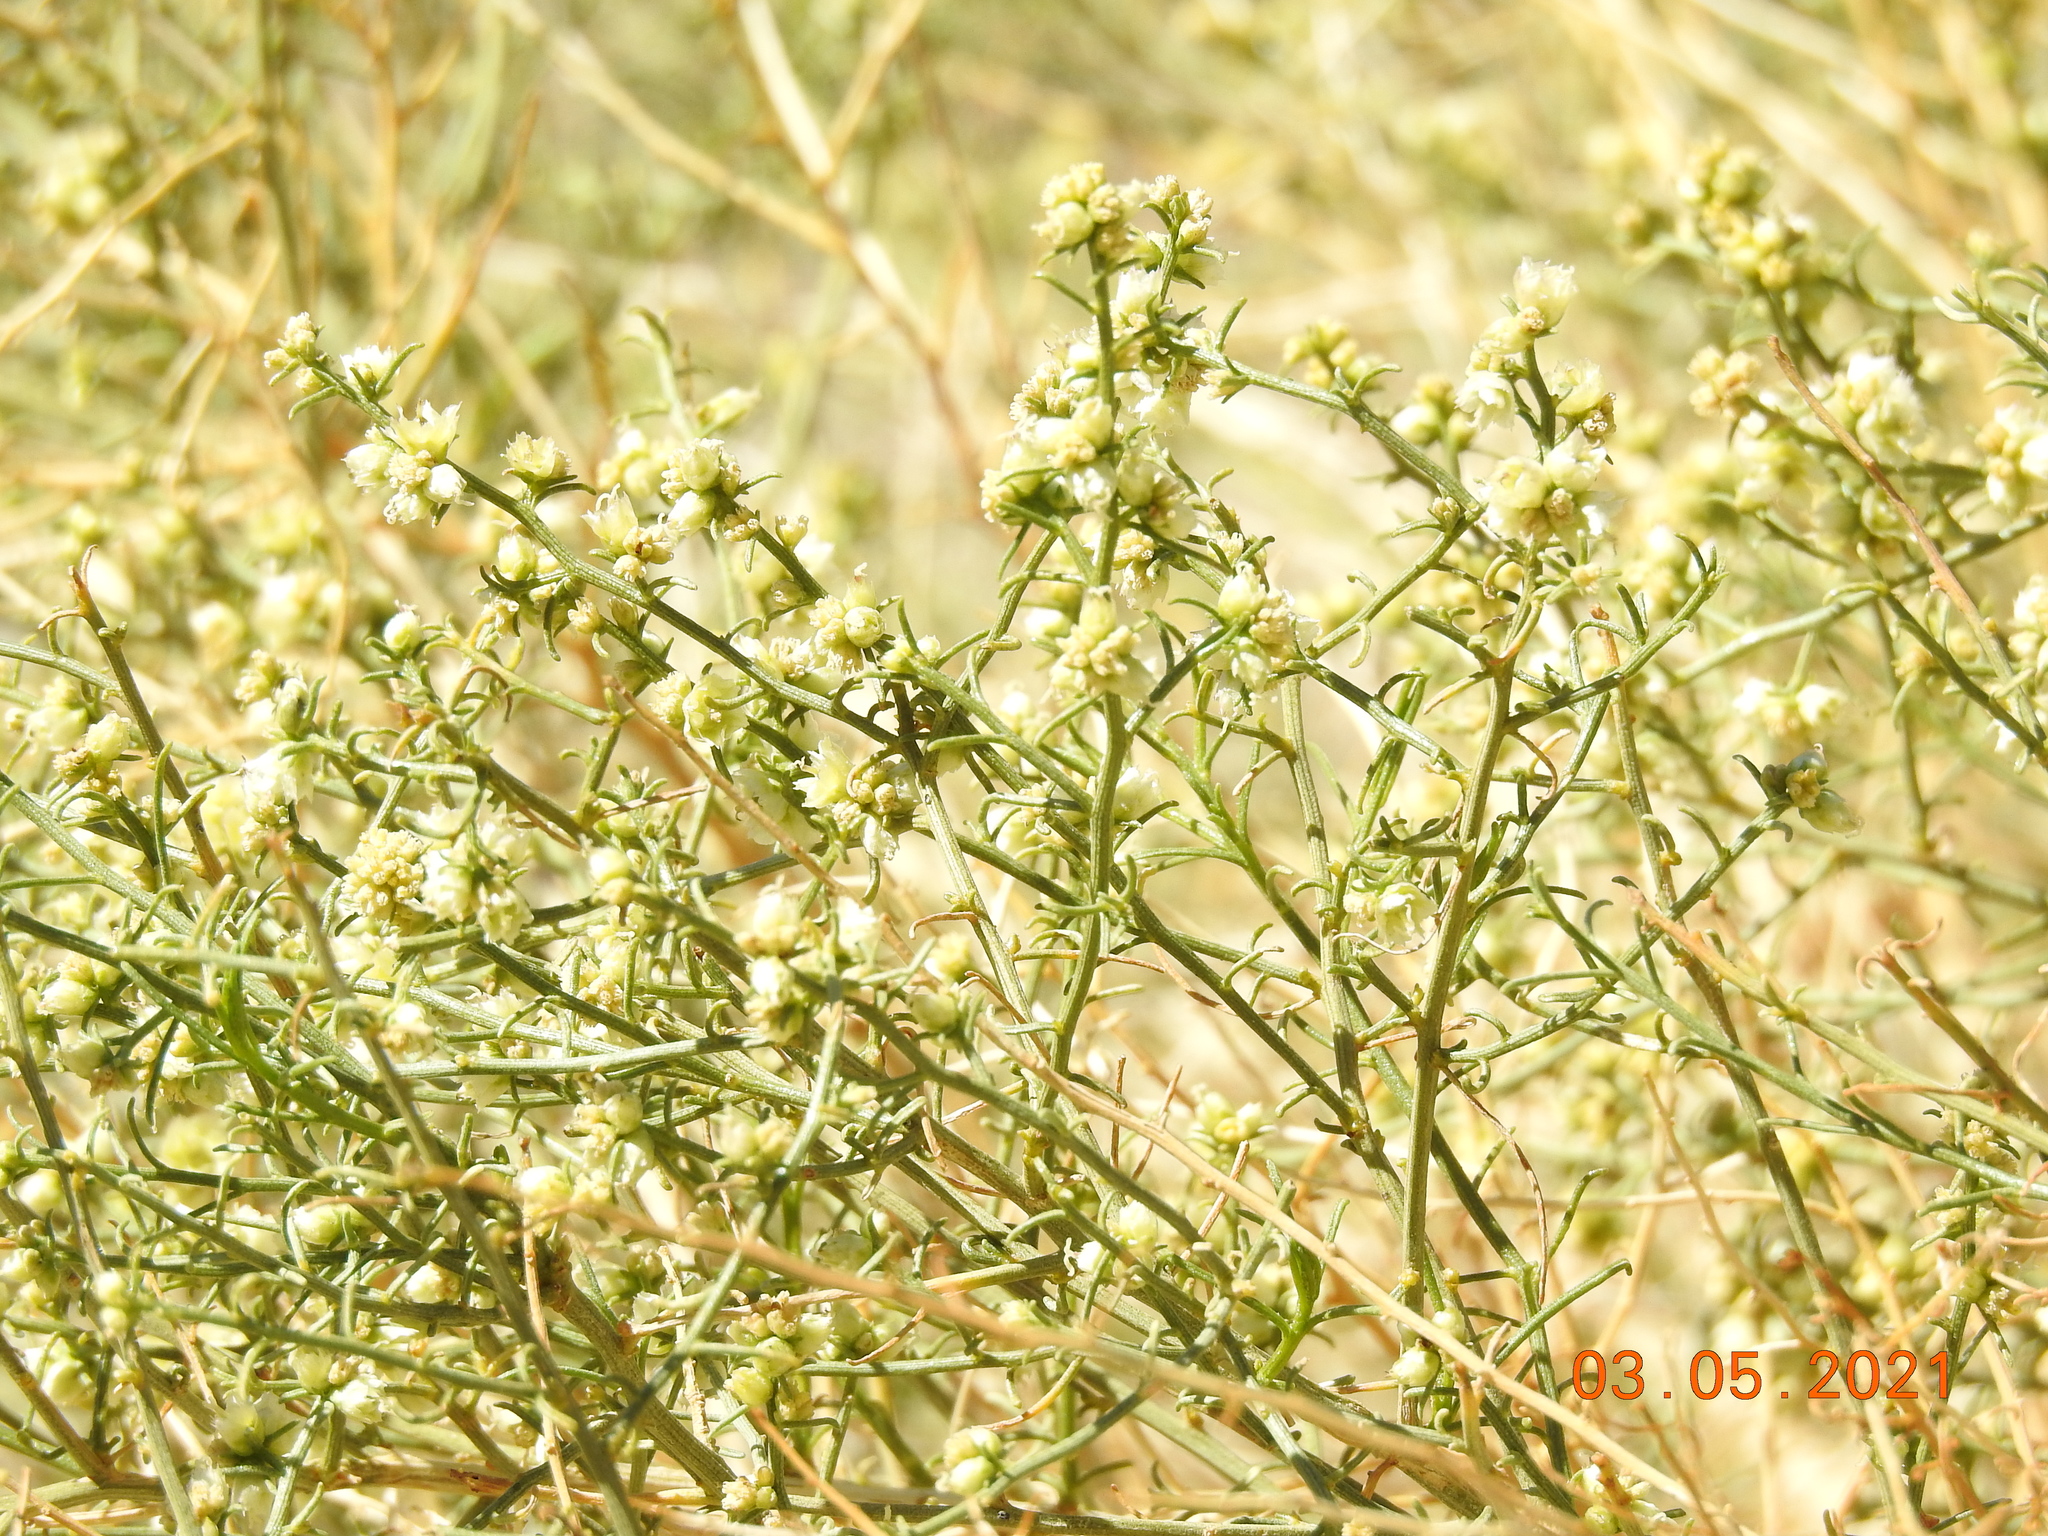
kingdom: Plantae
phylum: Tracheophyta
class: Magnoliopsida
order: Asterales
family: Asteraceae
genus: Ambrosia
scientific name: Ambrosia salsola
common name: Burrobrush
